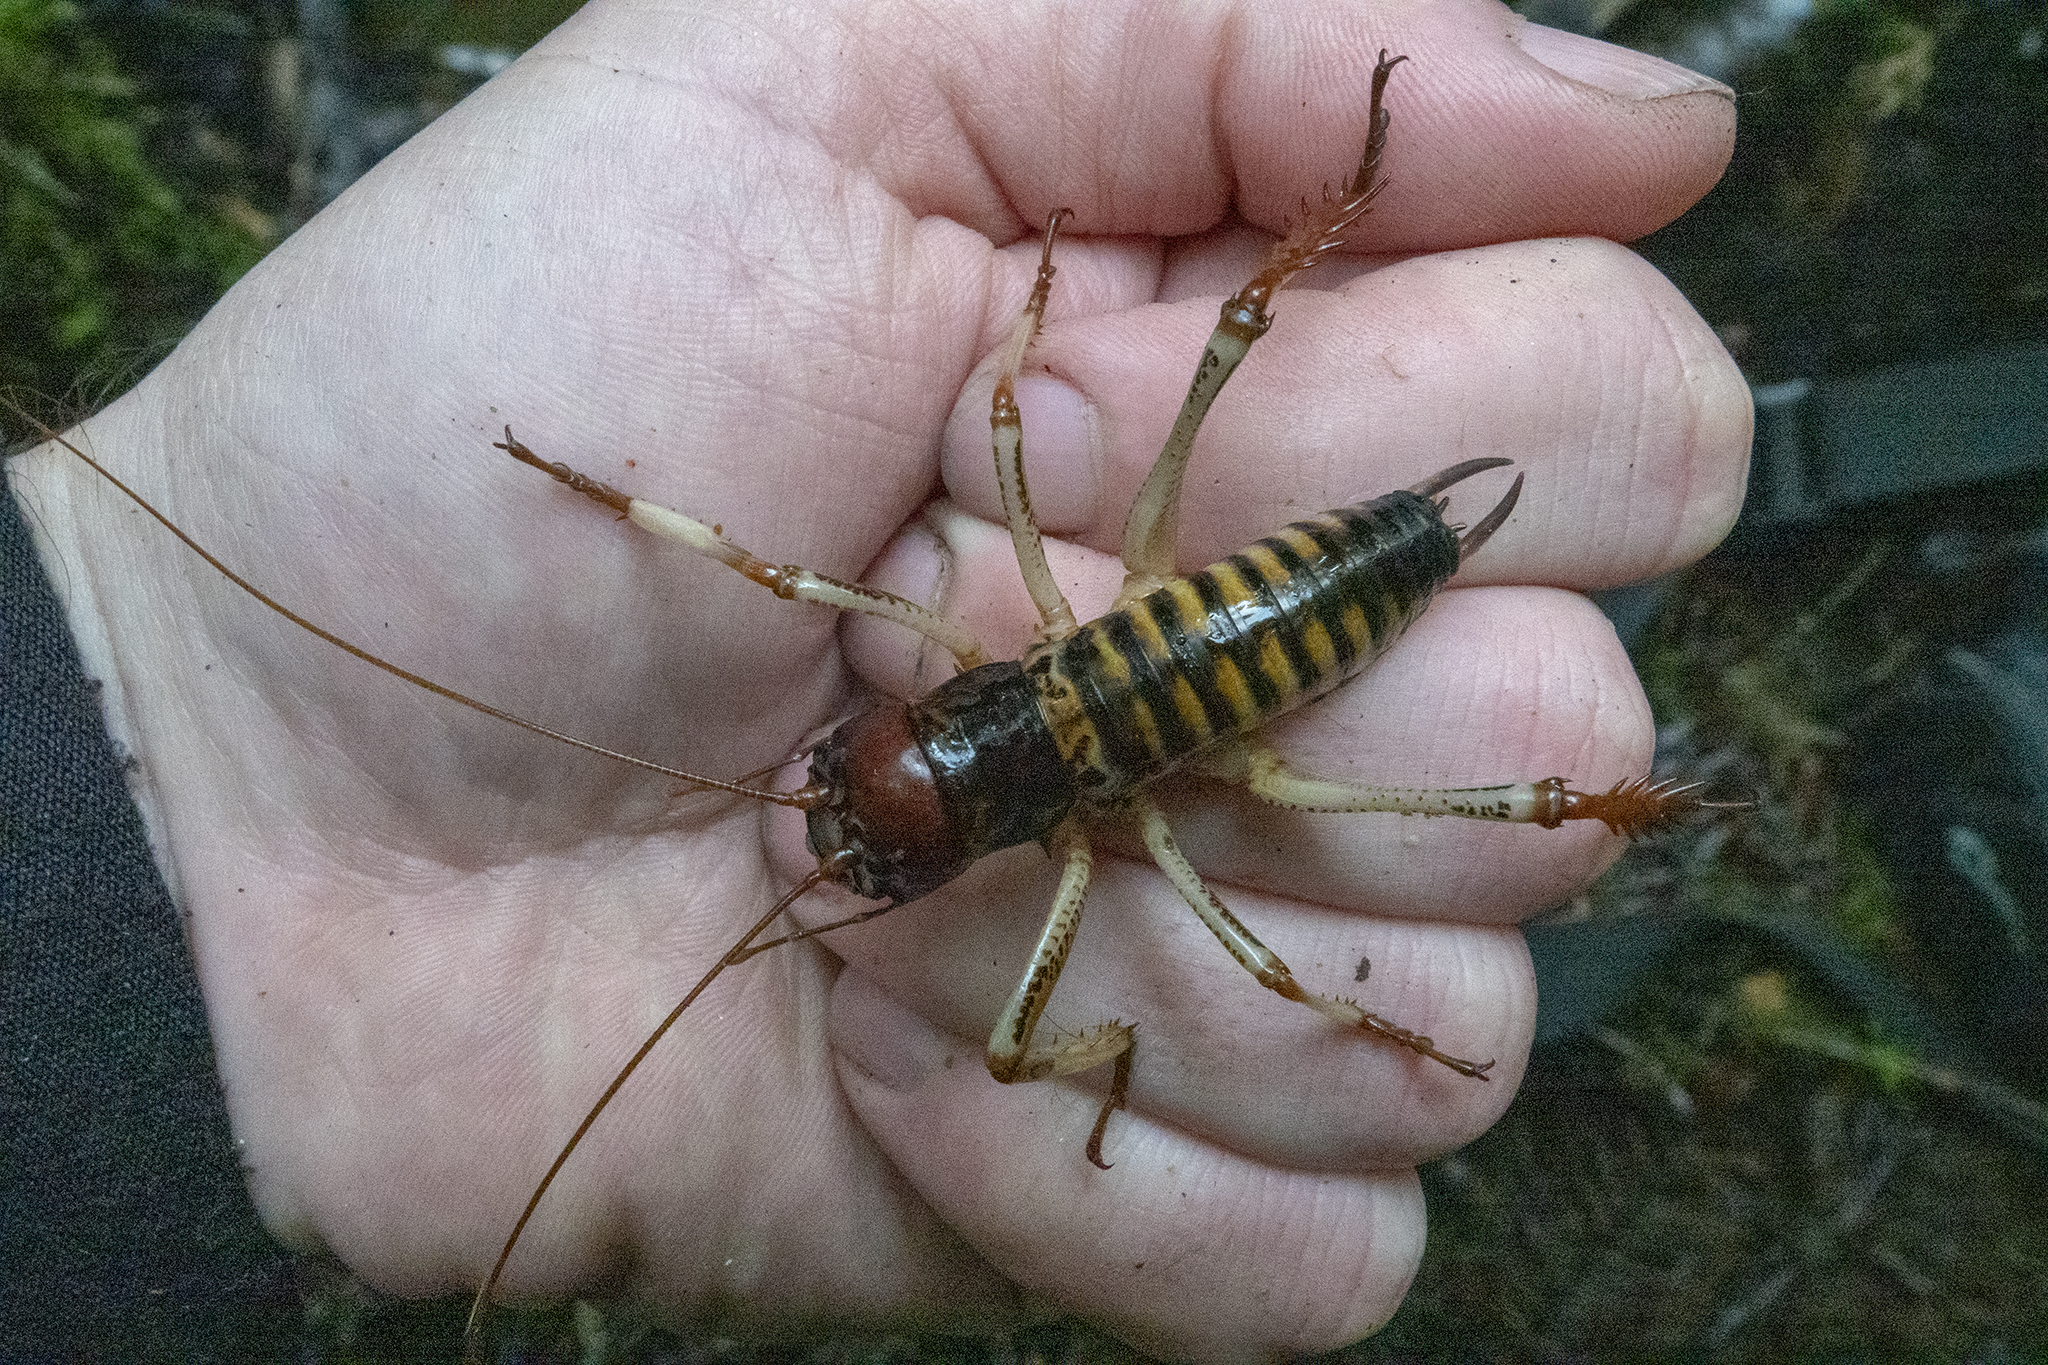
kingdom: Animalia
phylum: Arthropoda
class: Insecta
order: Orthoptera
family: Anostostomatidae
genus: Hemideina
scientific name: Hemideina crassidens
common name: Wellington tree weta
